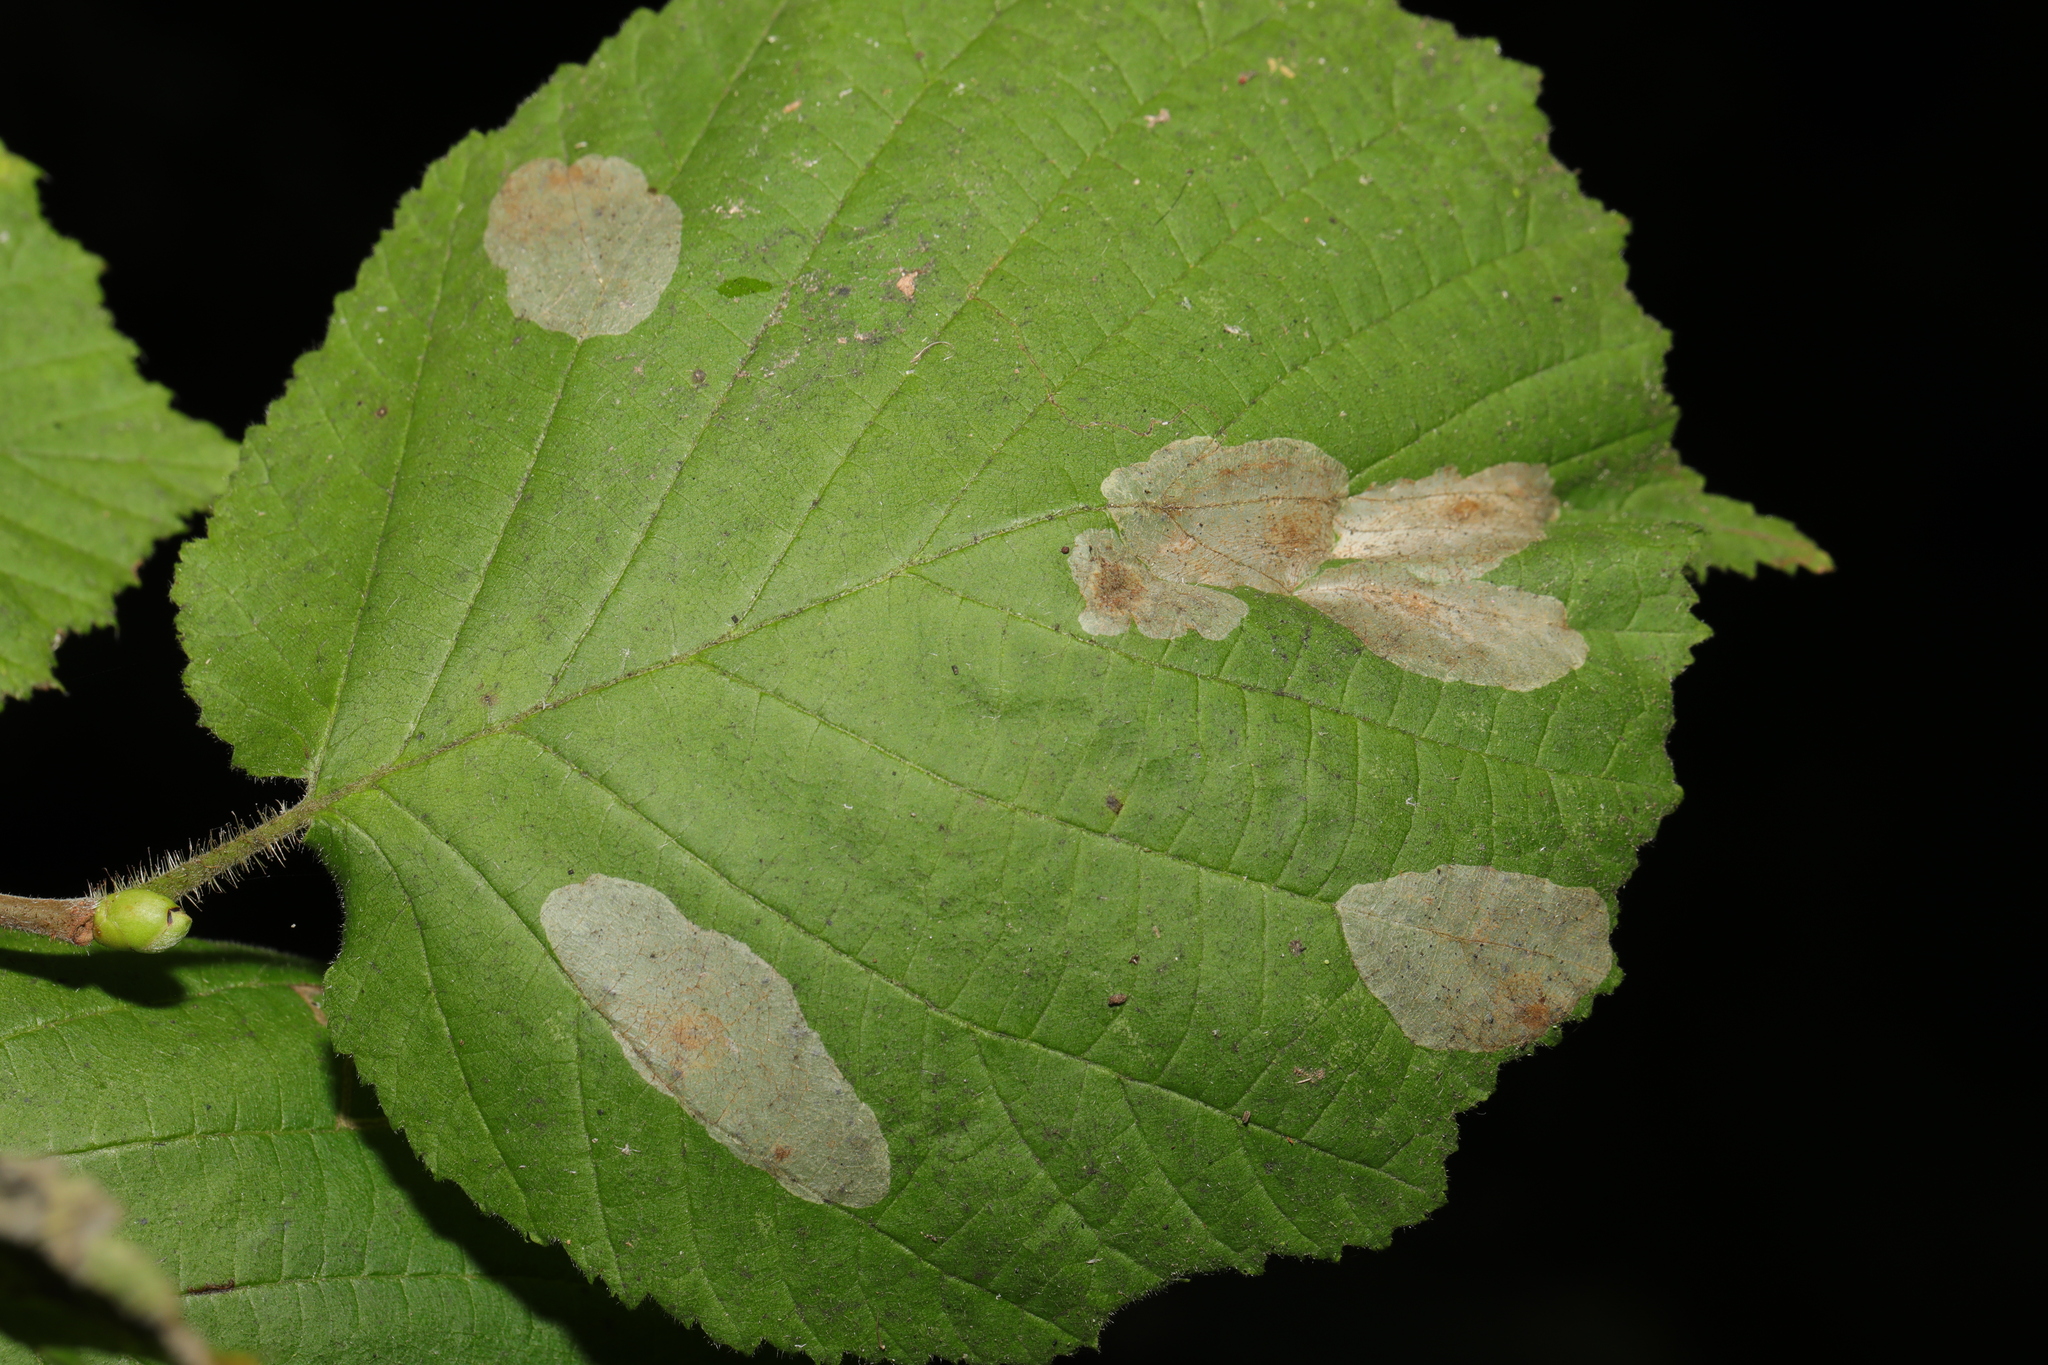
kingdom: Animalia
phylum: Arthropoda
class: Insecta
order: Lepidoptera
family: Gracillariidae
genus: Phyllonorycter
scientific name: Phyllonorycter coryli
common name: Nut-leaf blister moth
